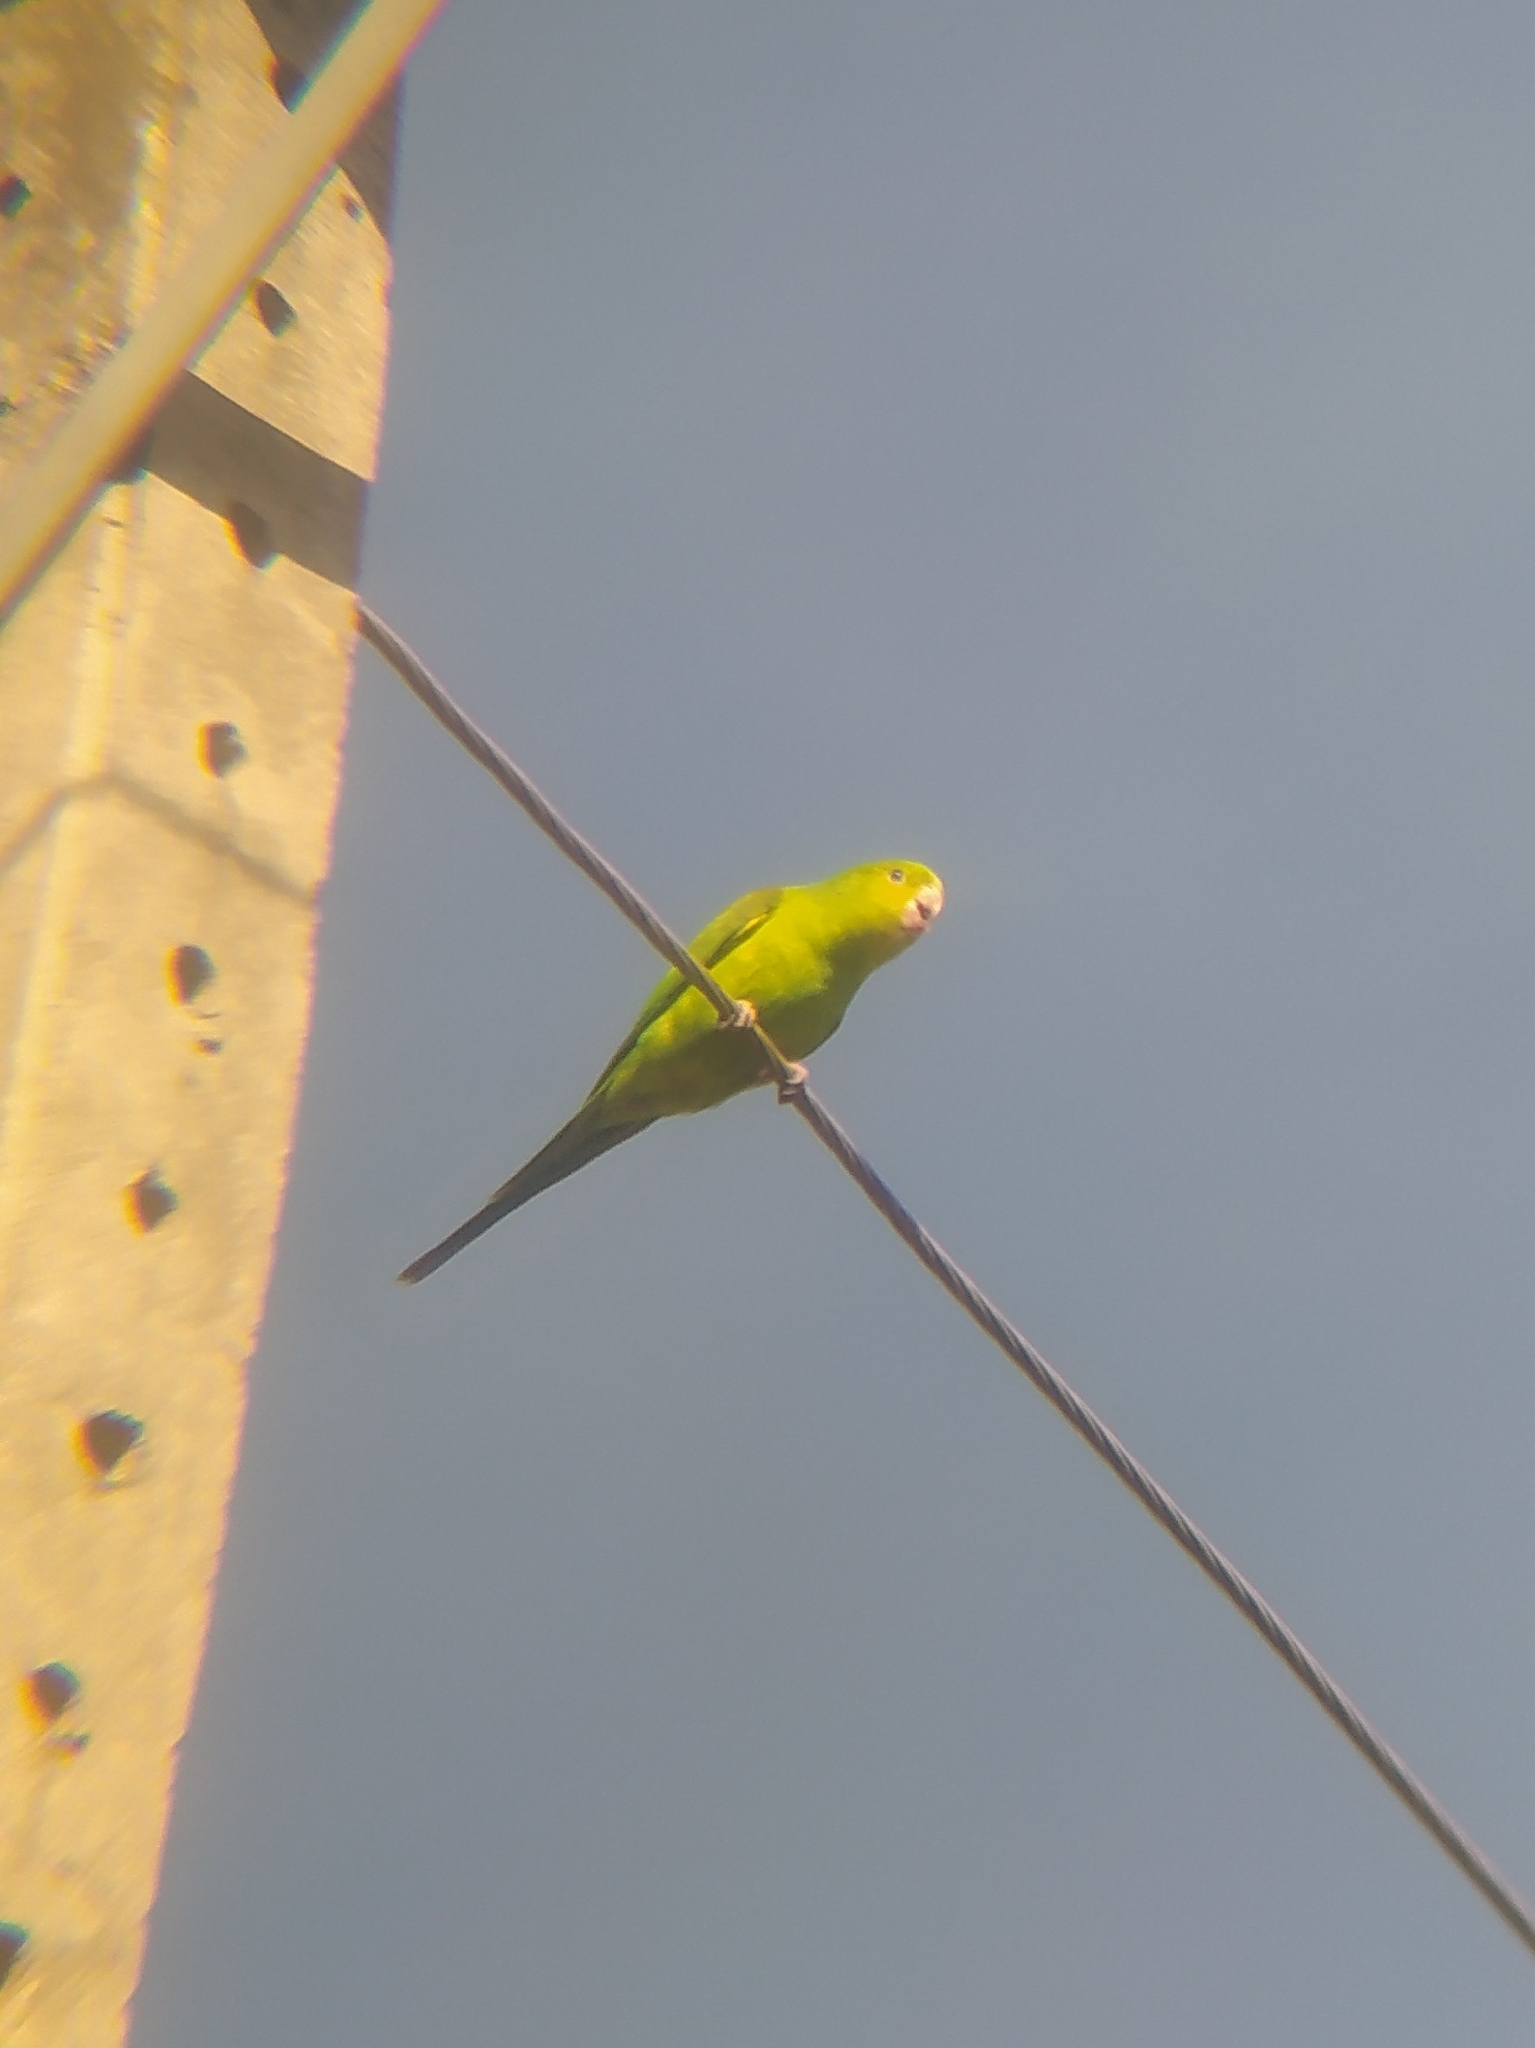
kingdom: Animalia
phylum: Chordata
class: Aves
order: Psittaciformes
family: Psittacidae
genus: Brotogeris
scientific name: Brotogeris tirica
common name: Plain parakeet
